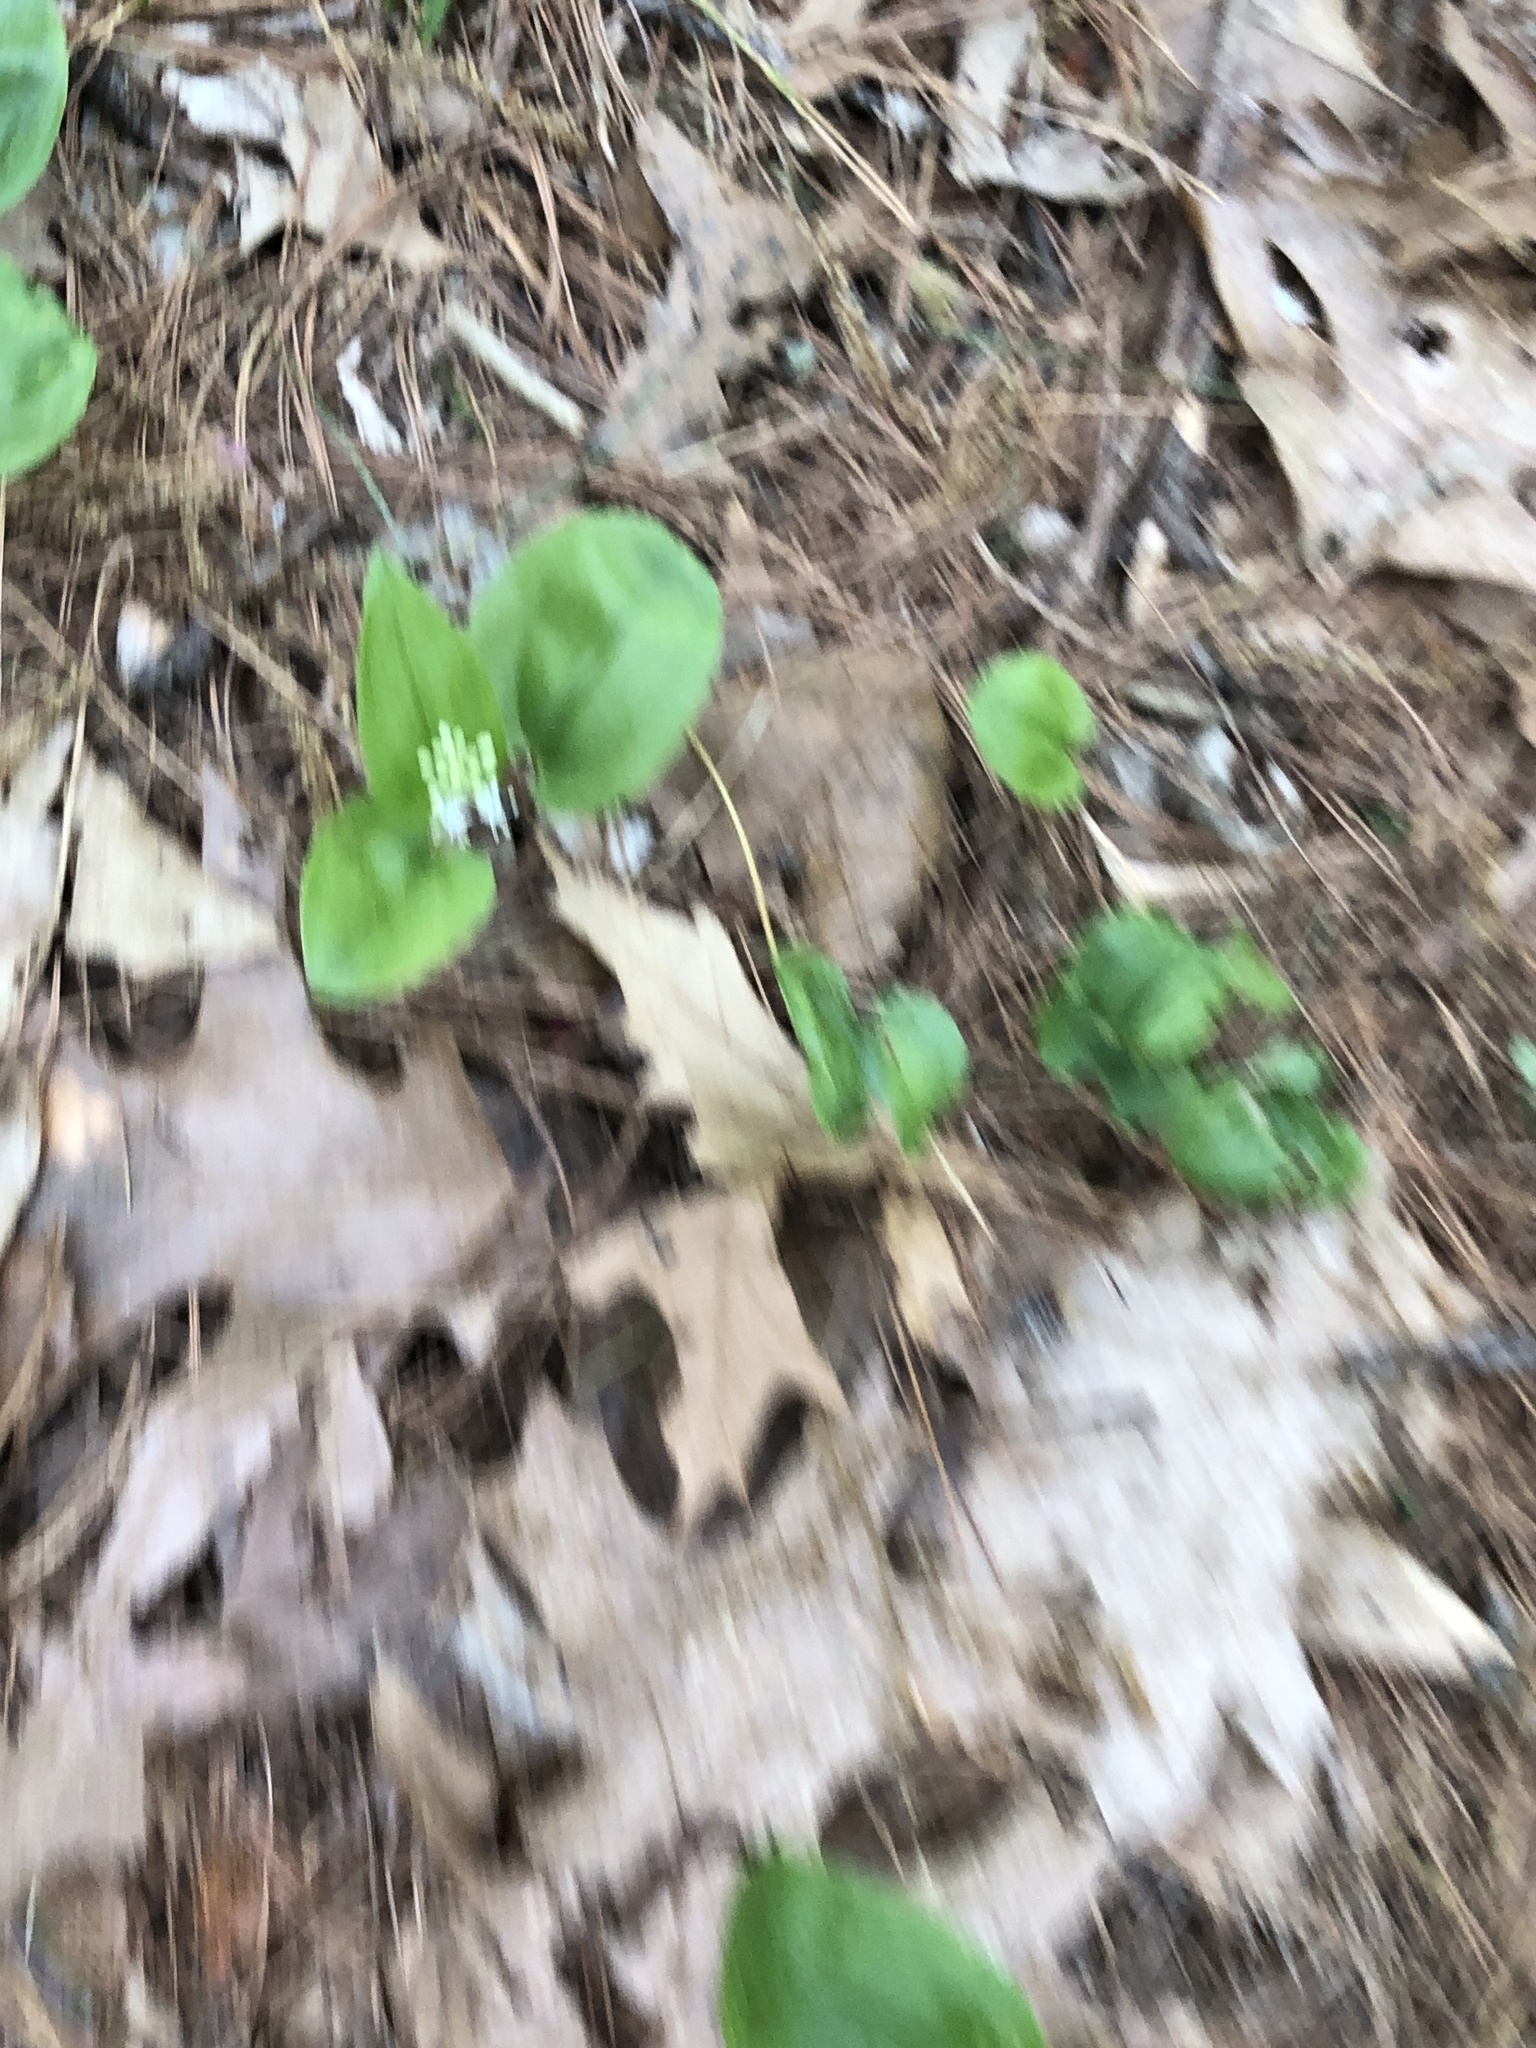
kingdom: Plantae
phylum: Tracheophyta
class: Liliopsida
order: Asparagales
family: Asparagaceae
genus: Maianthemum
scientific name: Maianthemum canadense
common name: False lily-of-the-valley
